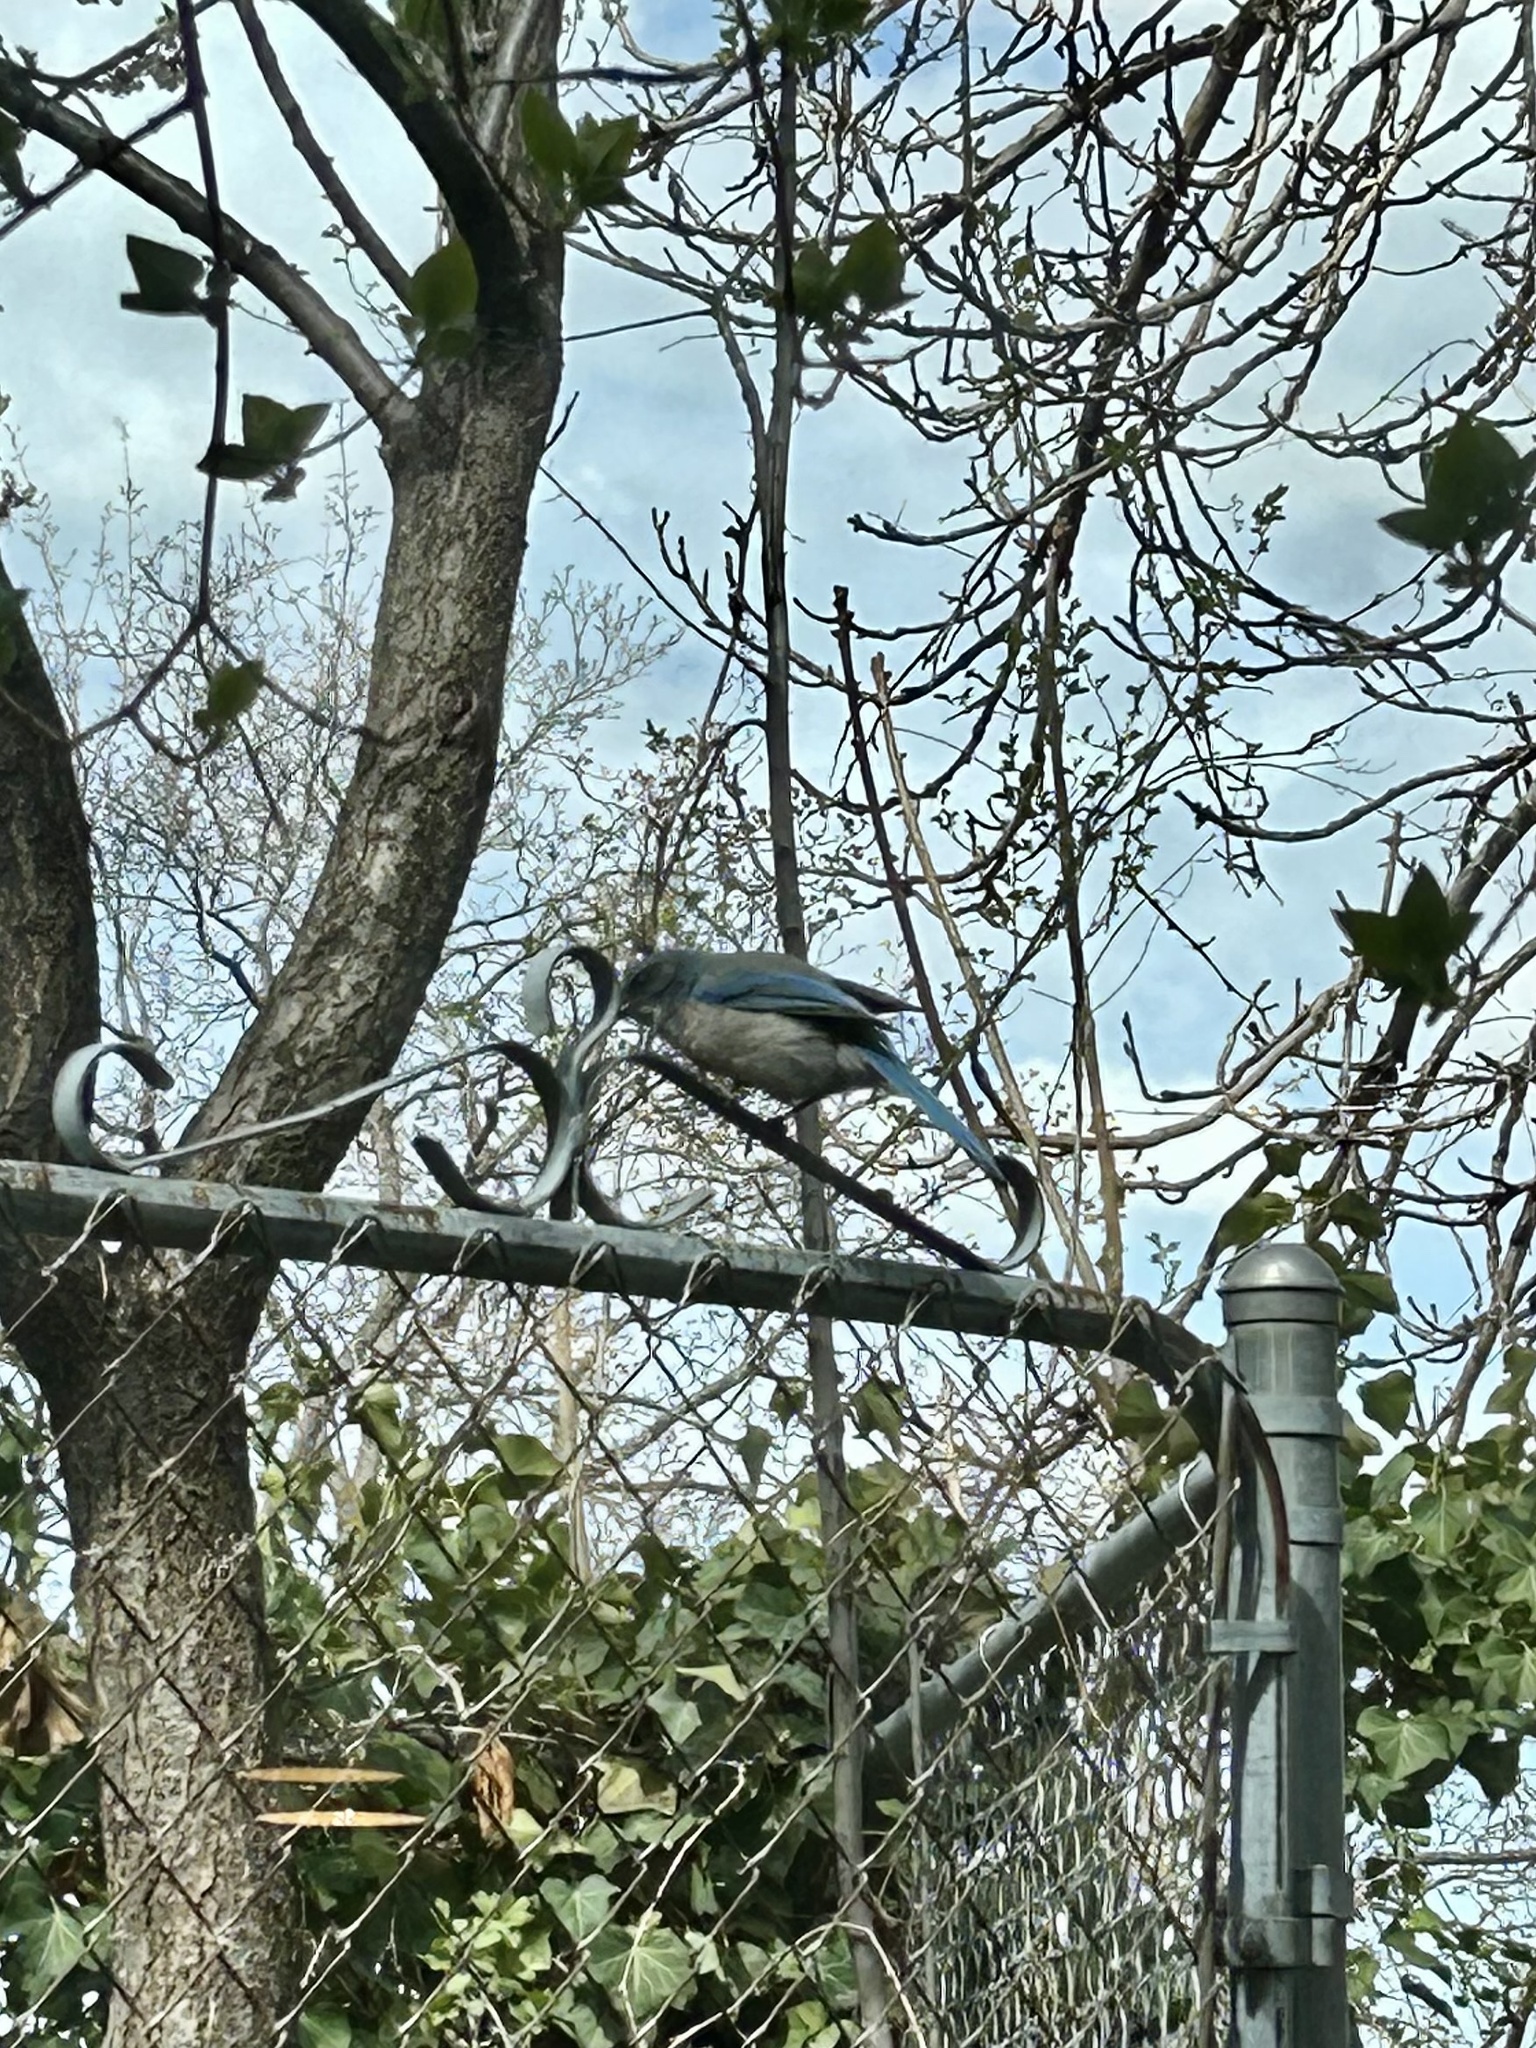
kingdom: Animalia
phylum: Chordata
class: Aves
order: Passeriformes
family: Corvidae
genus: Aphelocoma
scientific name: Aphelocoma woodhouseii
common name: Woodhouse's scrub-jay
